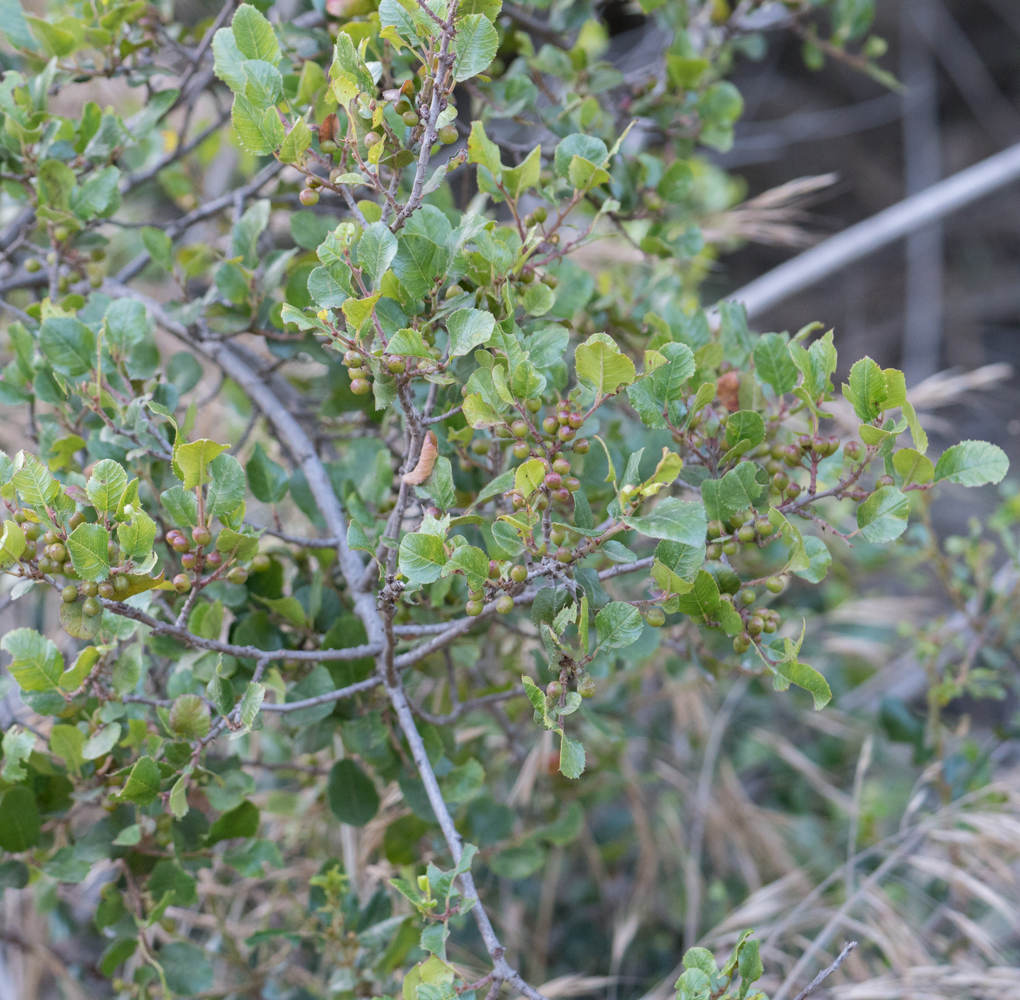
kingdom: Plantae
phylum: Tracheophyta
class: Magnoliopsida
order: Rosales
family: Rhamnaceae
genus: Endotropis
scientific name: Endotropis crocea
